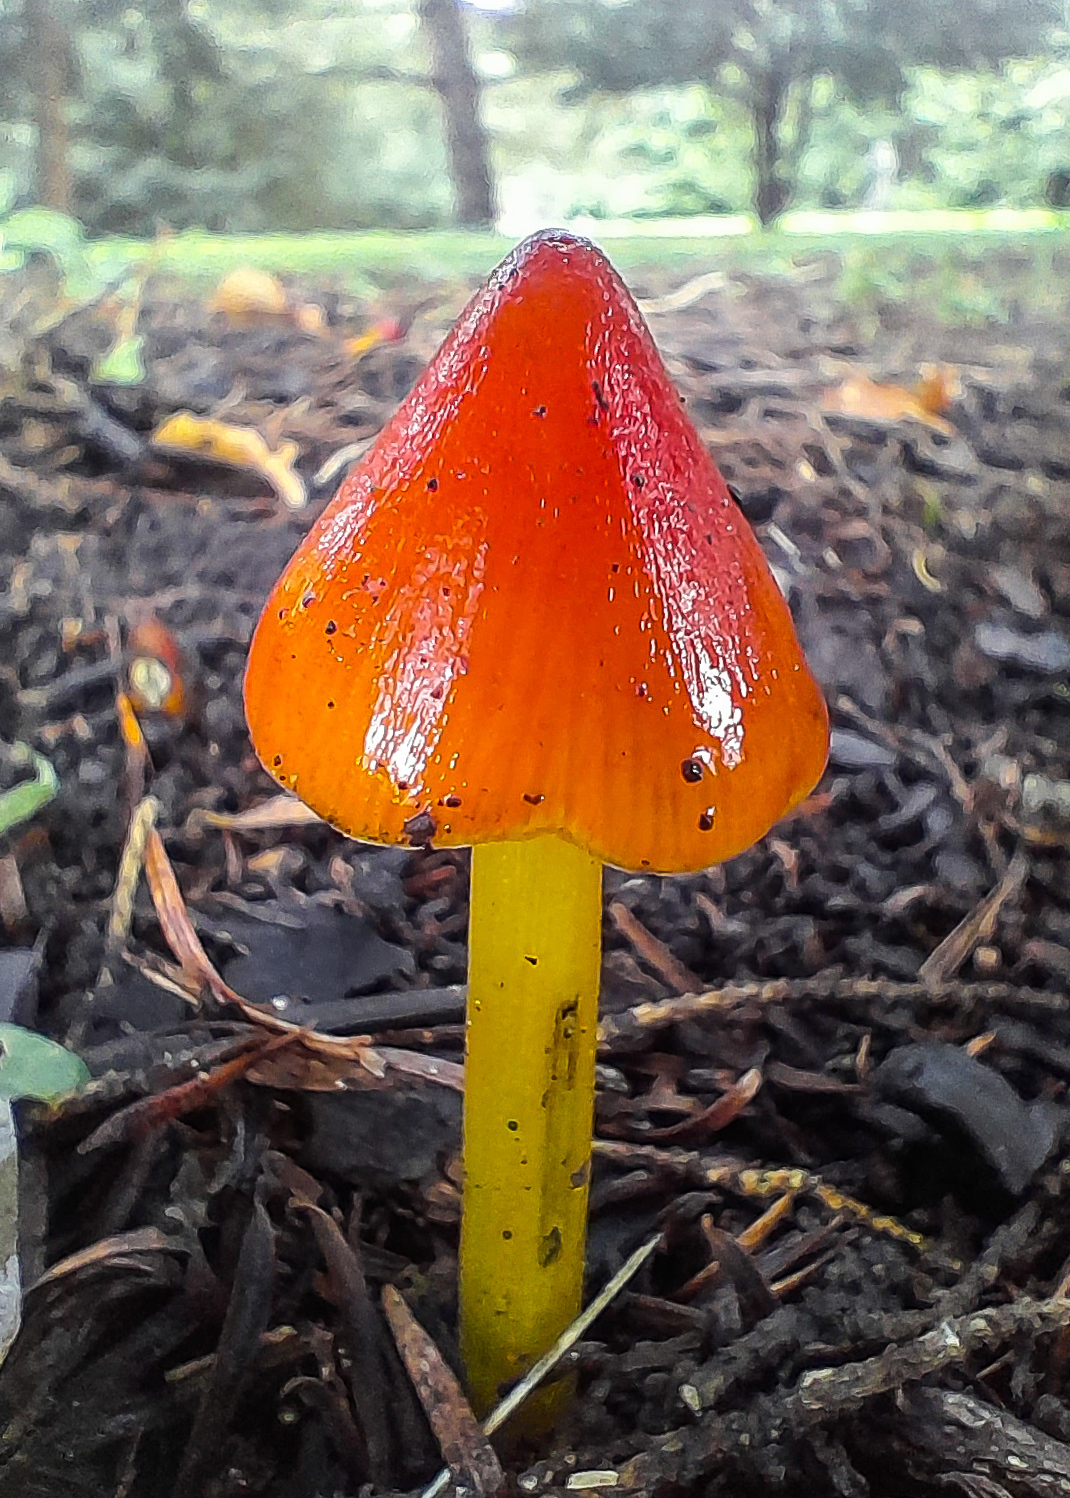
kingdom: Fungi
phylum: Basidiomycota
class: Agaricomycetes
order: Agaricales
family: Hygrophoraceae
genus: Hygrocybe
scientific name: Hygrocybe conica
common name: Blackening wax-cap
